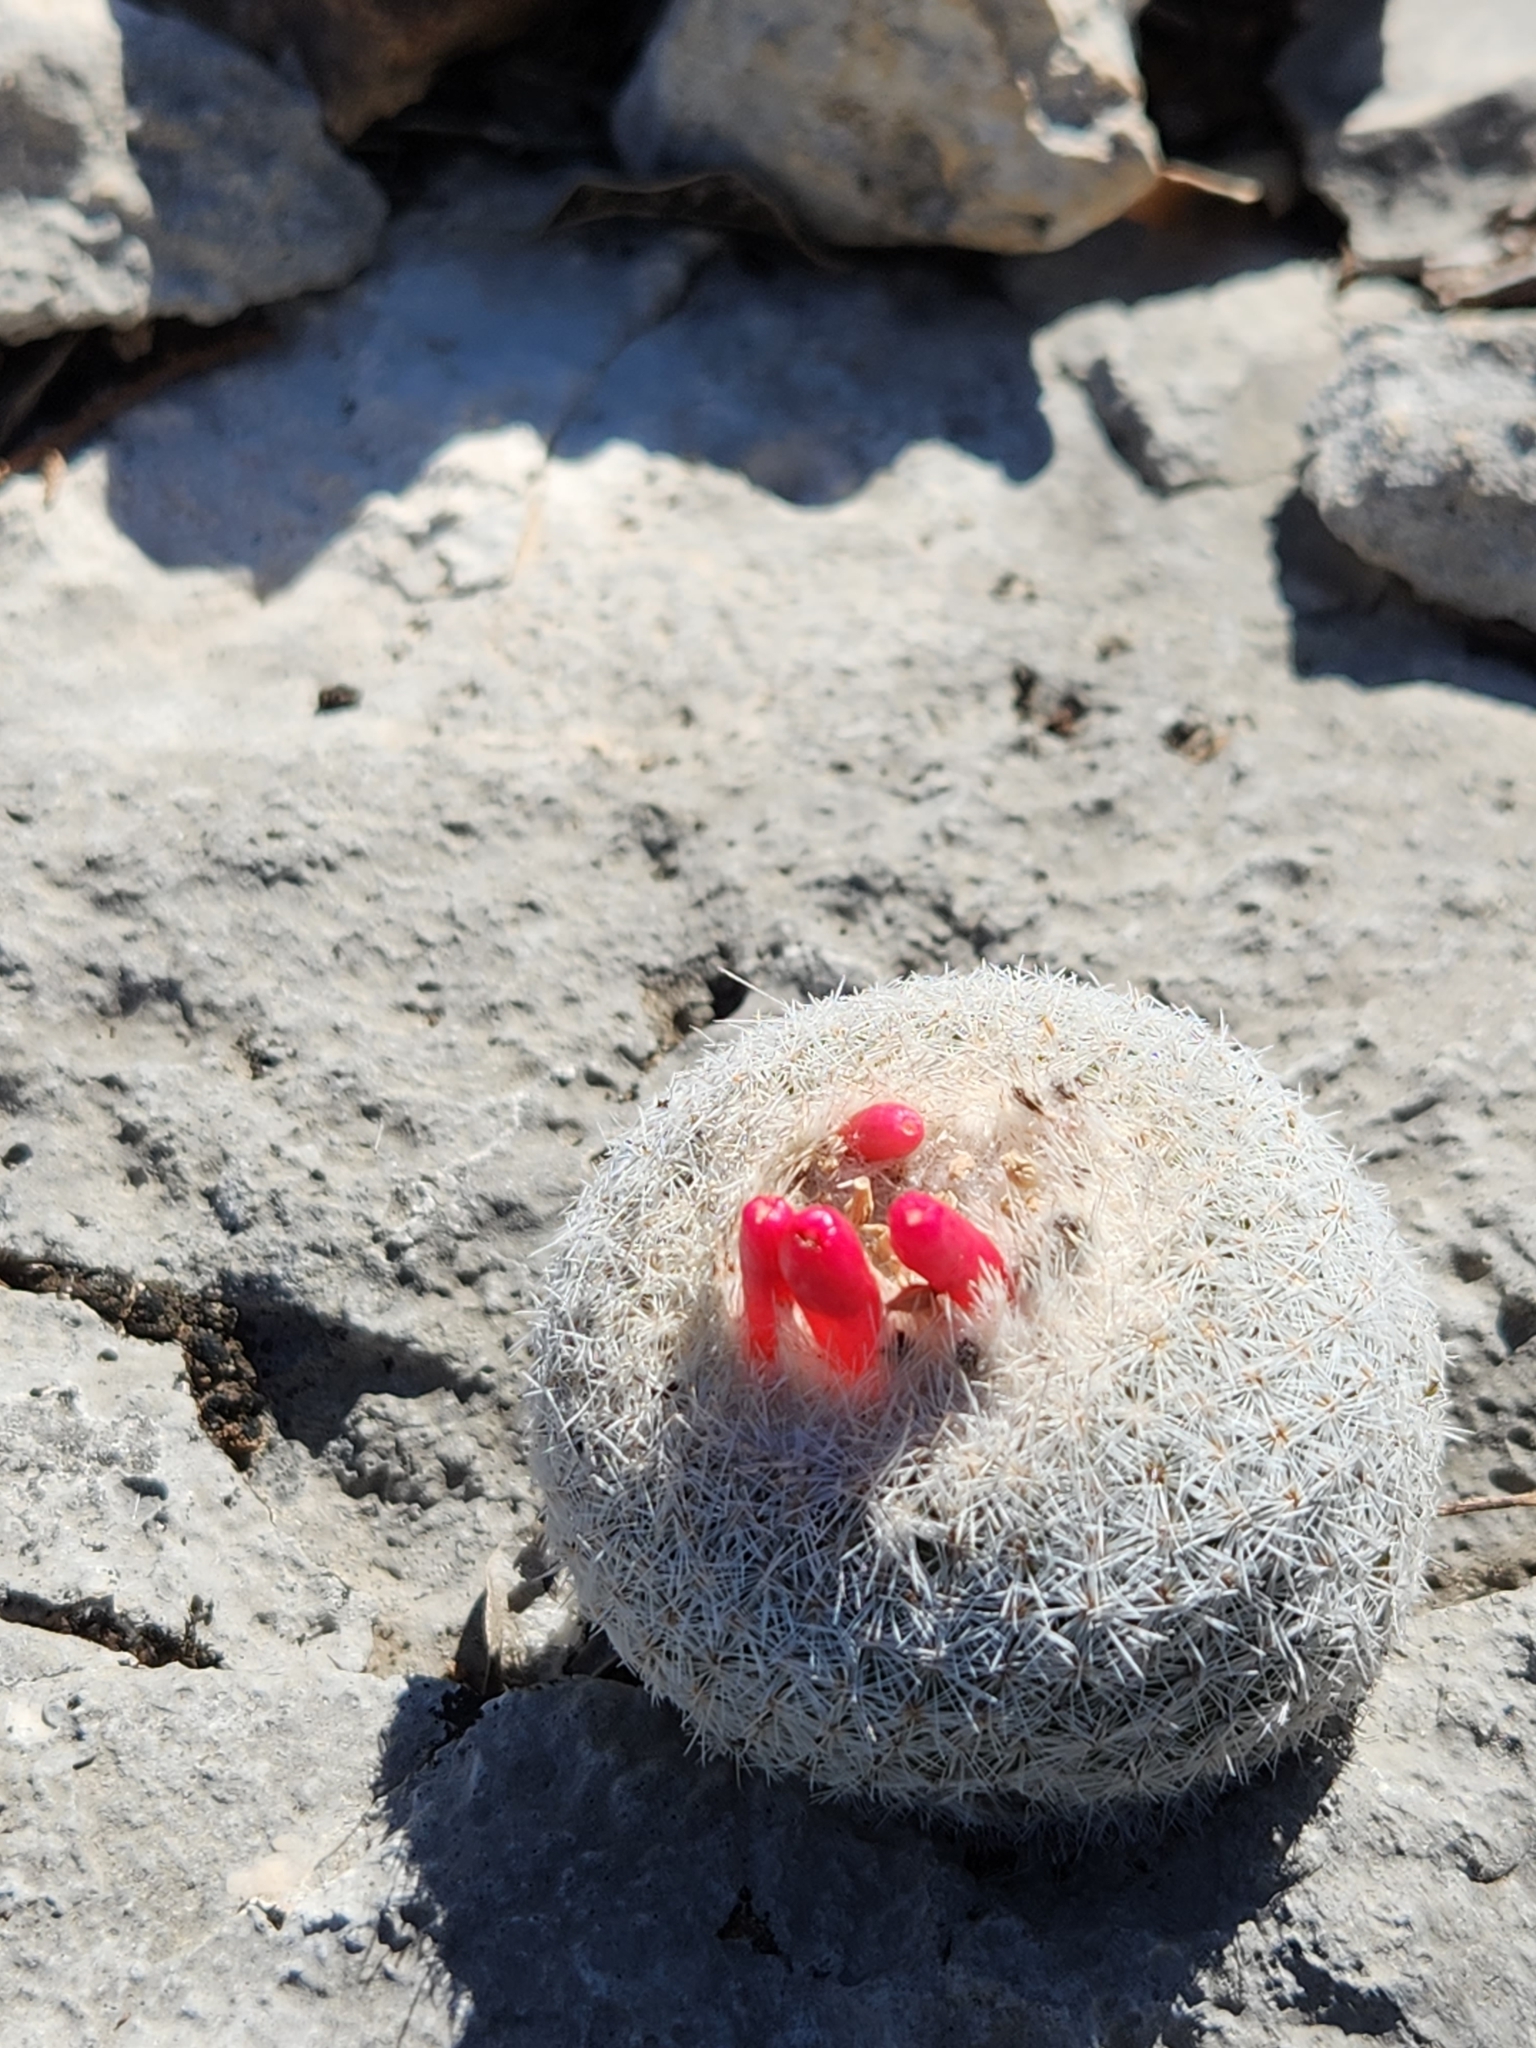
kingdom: Plantae
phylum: Tracheophyta
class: Magnoliopsida
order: Caryophyllales
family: Cactaceae
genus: Epithelantha
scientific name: Epithelantha micromeris
